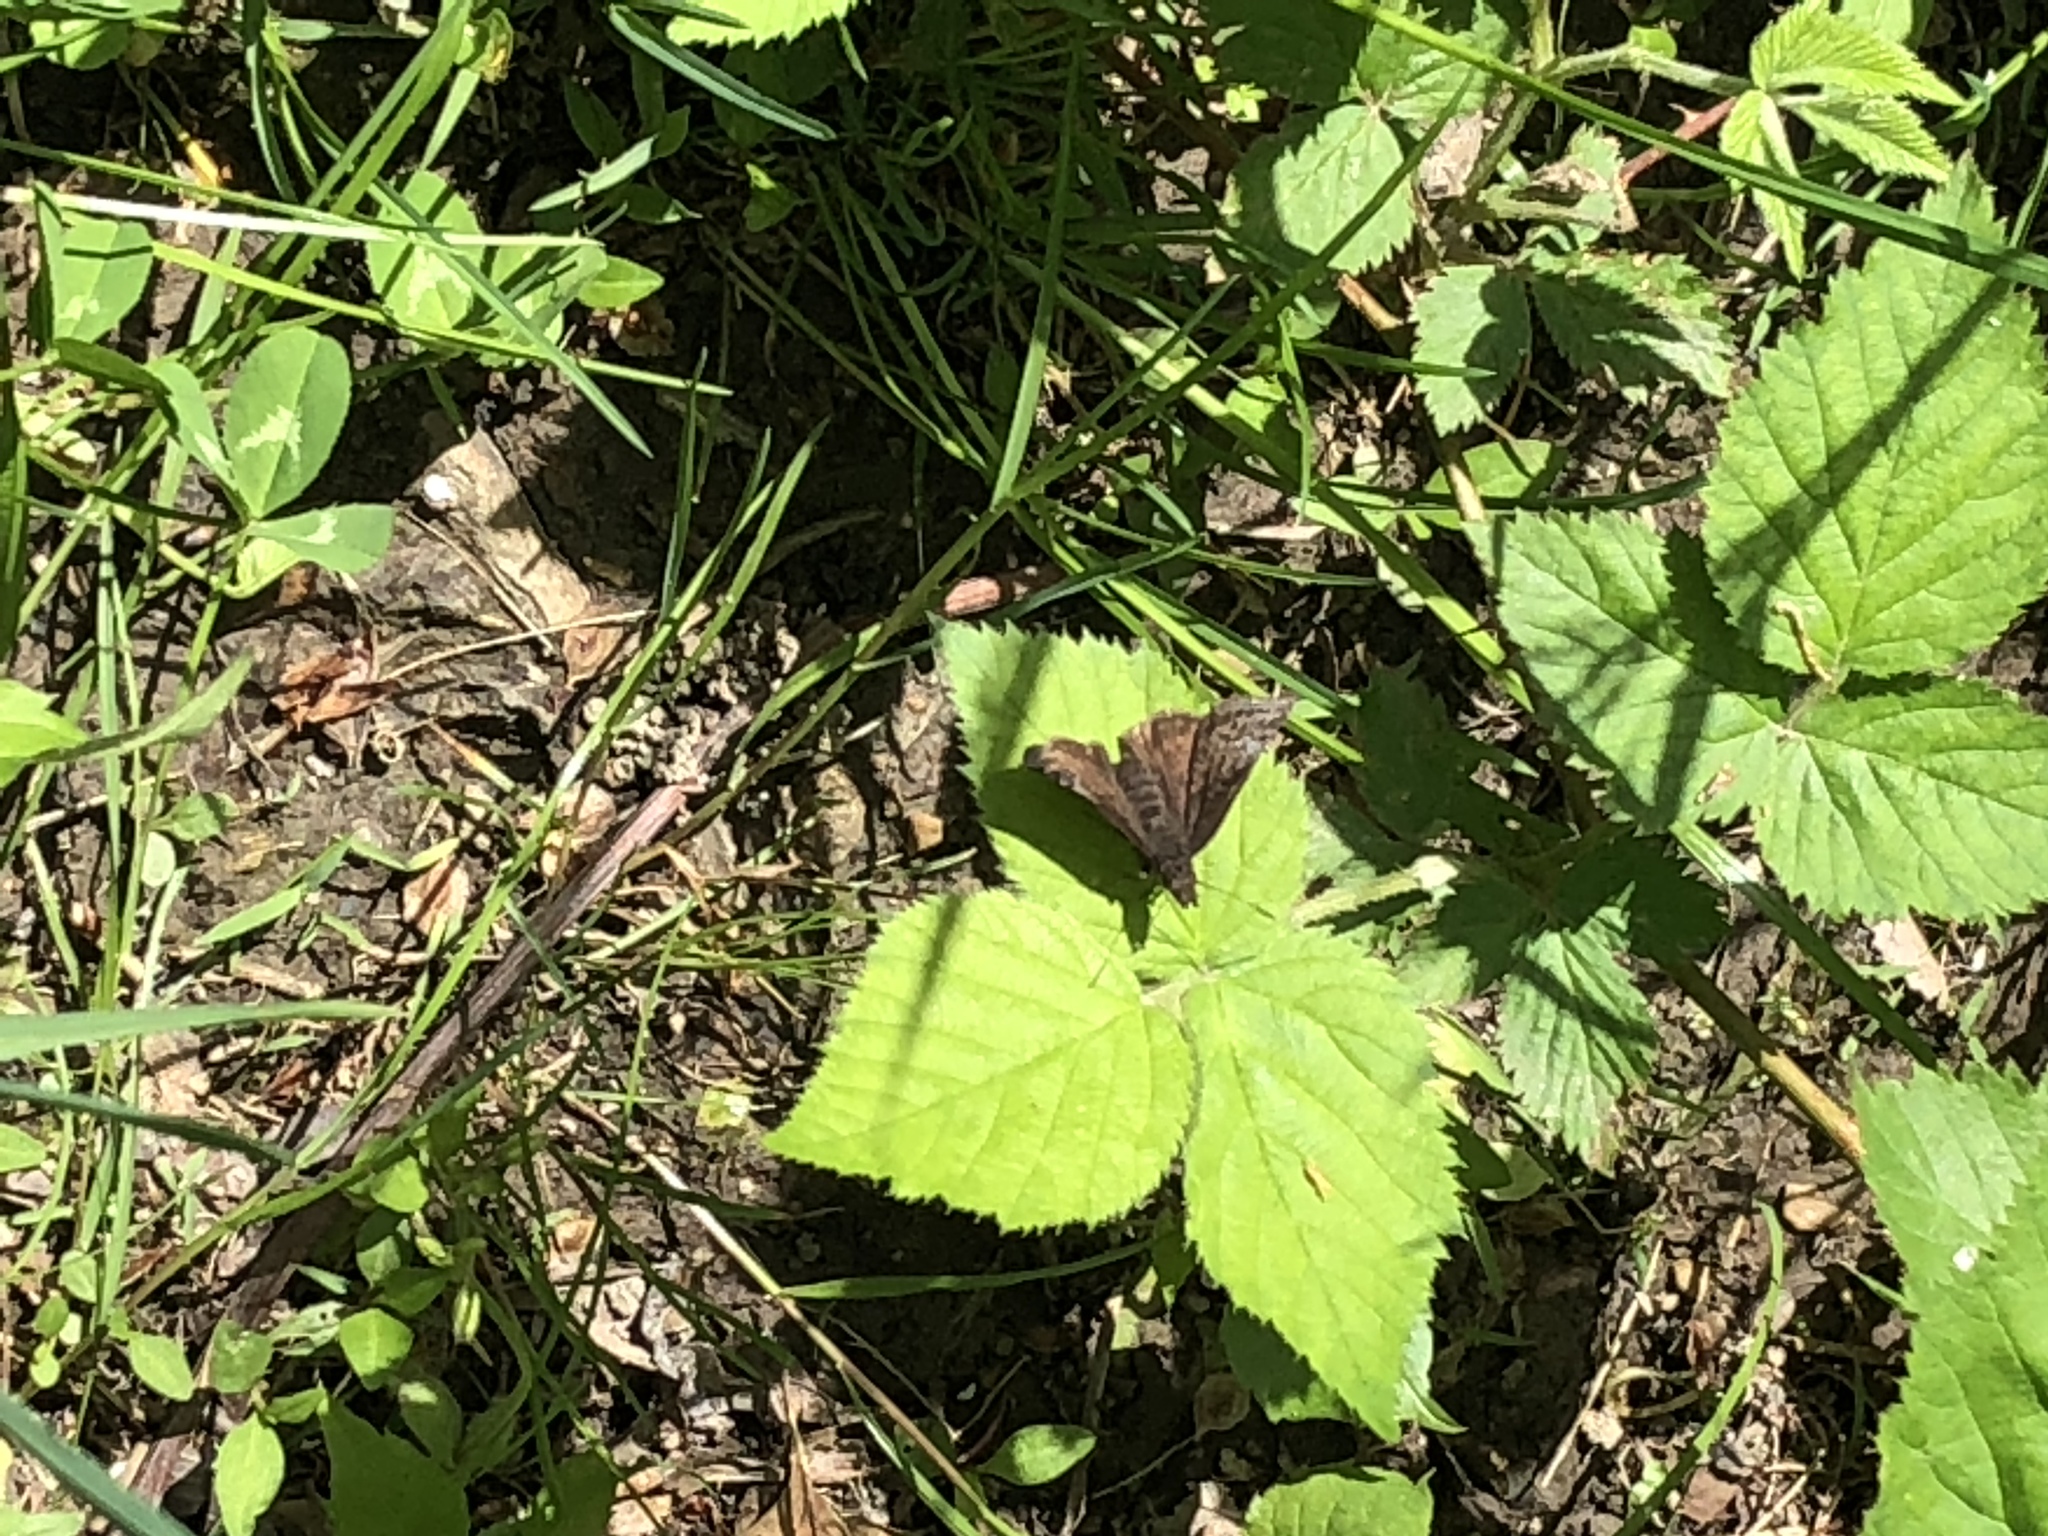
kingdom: Animalia
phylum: Arthropoda
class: Insecta
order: Lepidoptera
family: Hesperiidae
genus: Erynnis
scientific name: Erynnis icelus
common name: Dreamy duskywing
